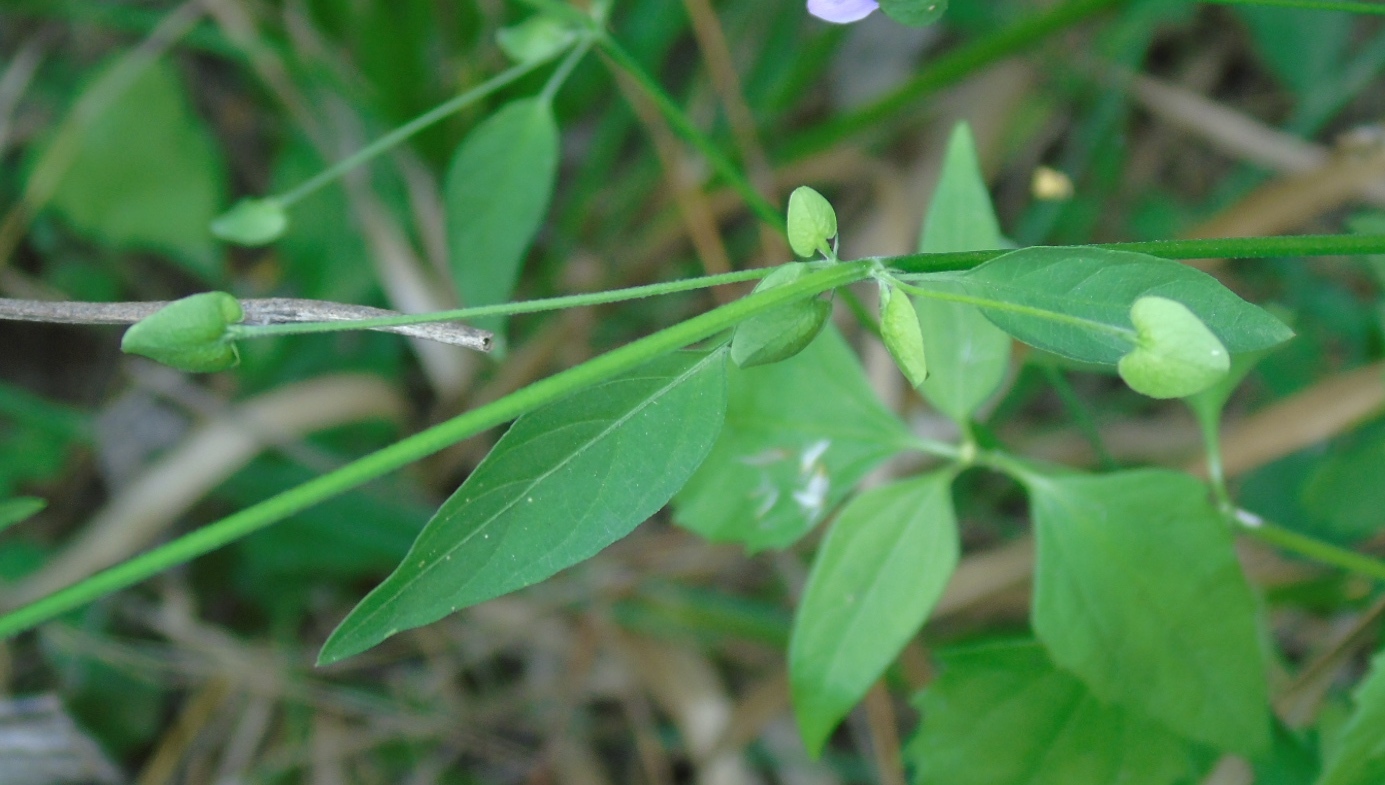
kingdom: Plantae
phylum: Tracheophyta
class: Magnoliopsida
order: Lamiales
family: Acanthaceae
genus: Dicliptera
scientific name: Dicliptera resupinata
